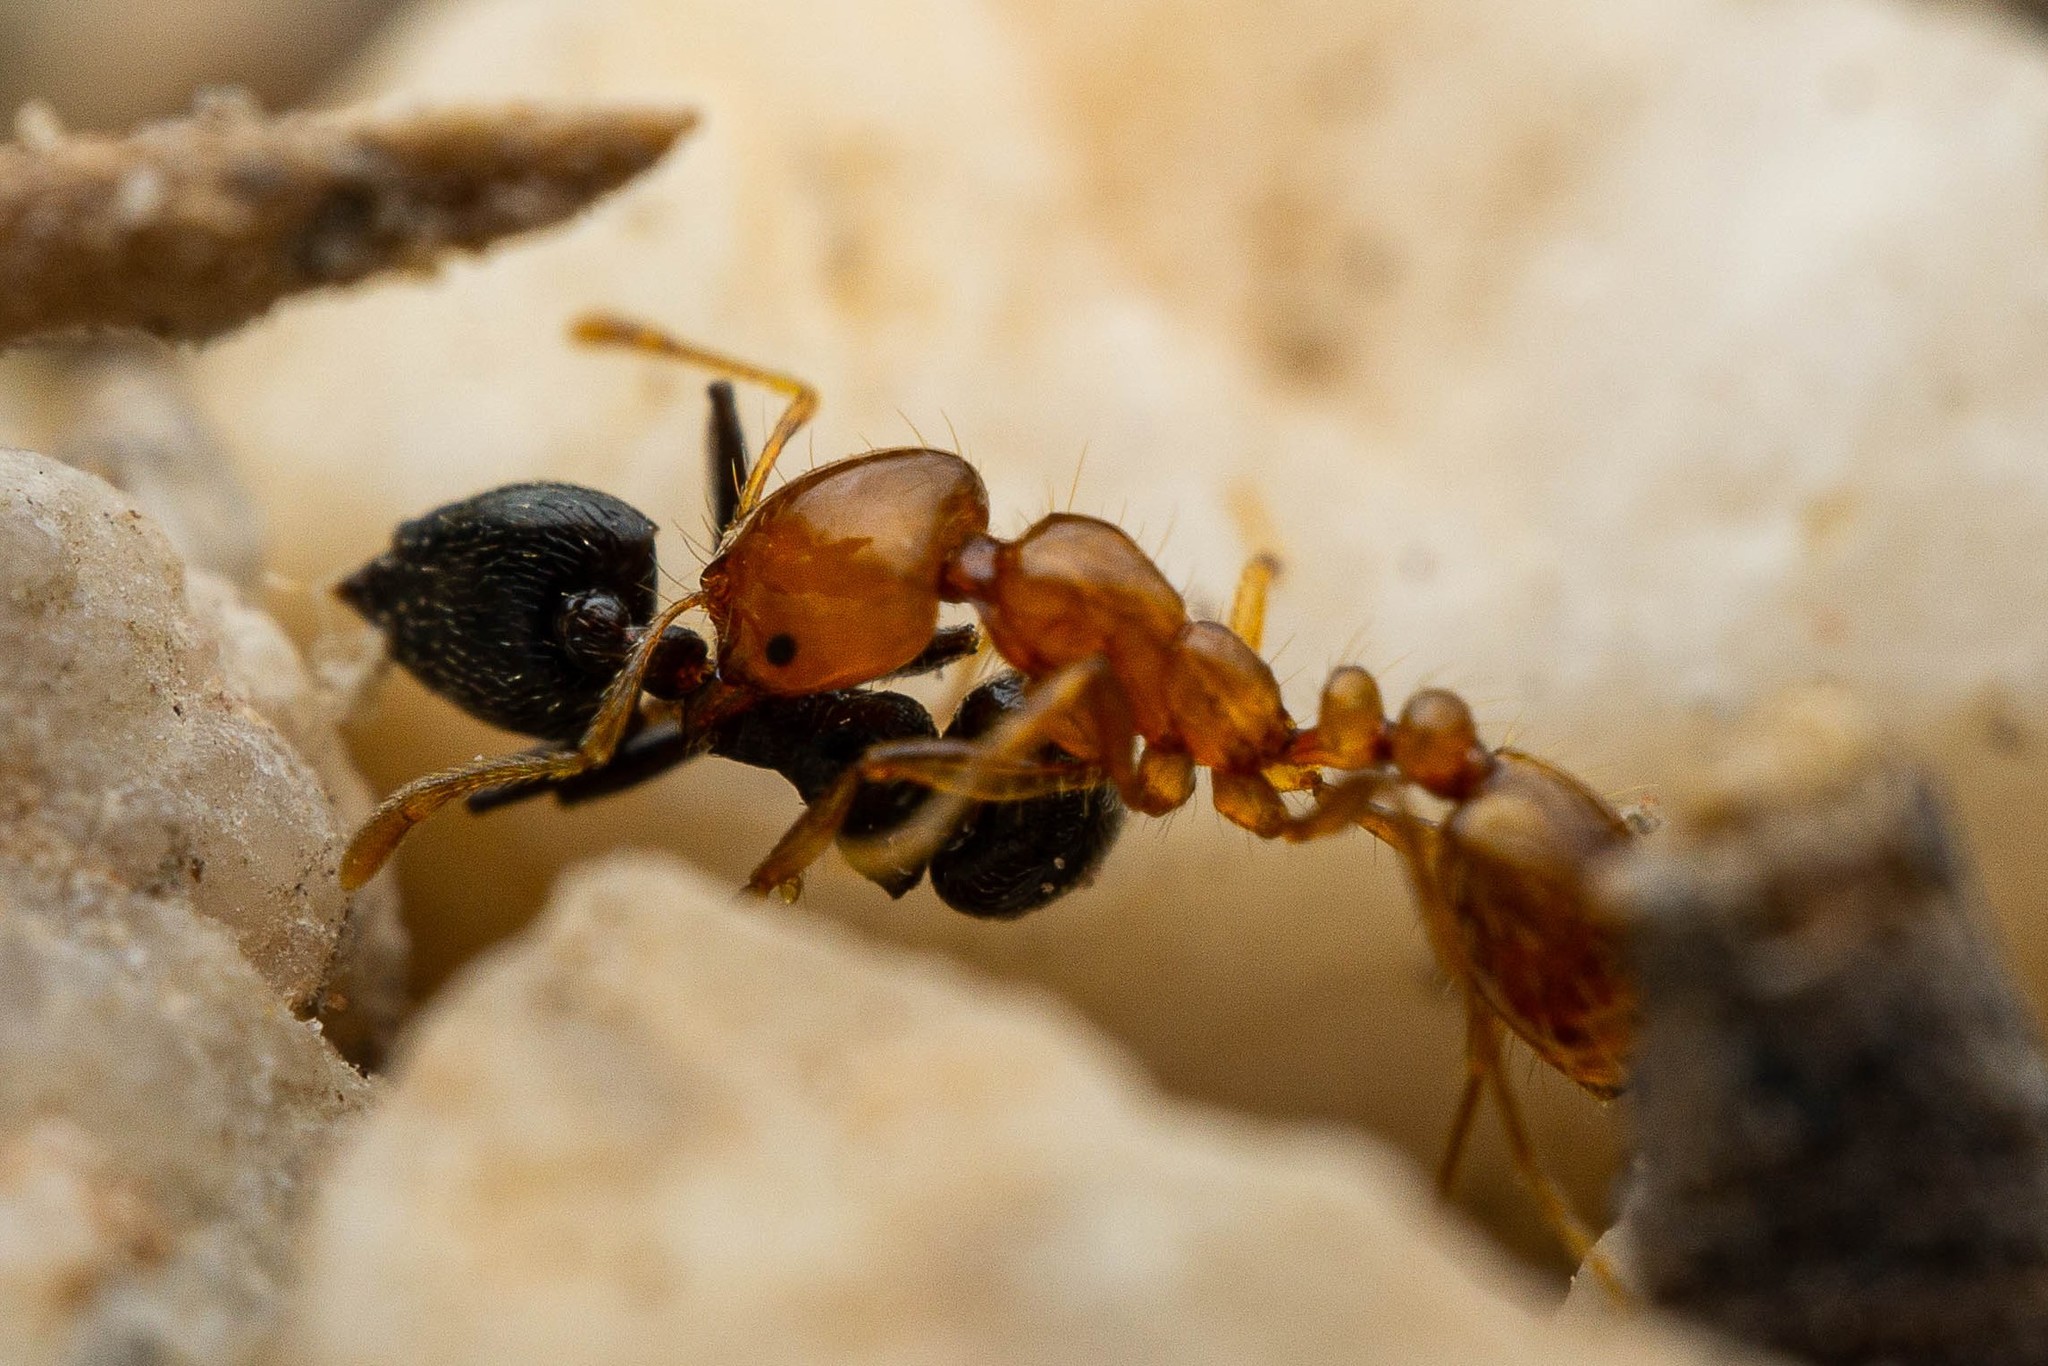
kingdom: Animalia
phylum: Arthropoda
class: Insecta
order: Hymenoptera
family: Formicidae
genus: Solenopsis
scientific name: Solenopsis amblychila
